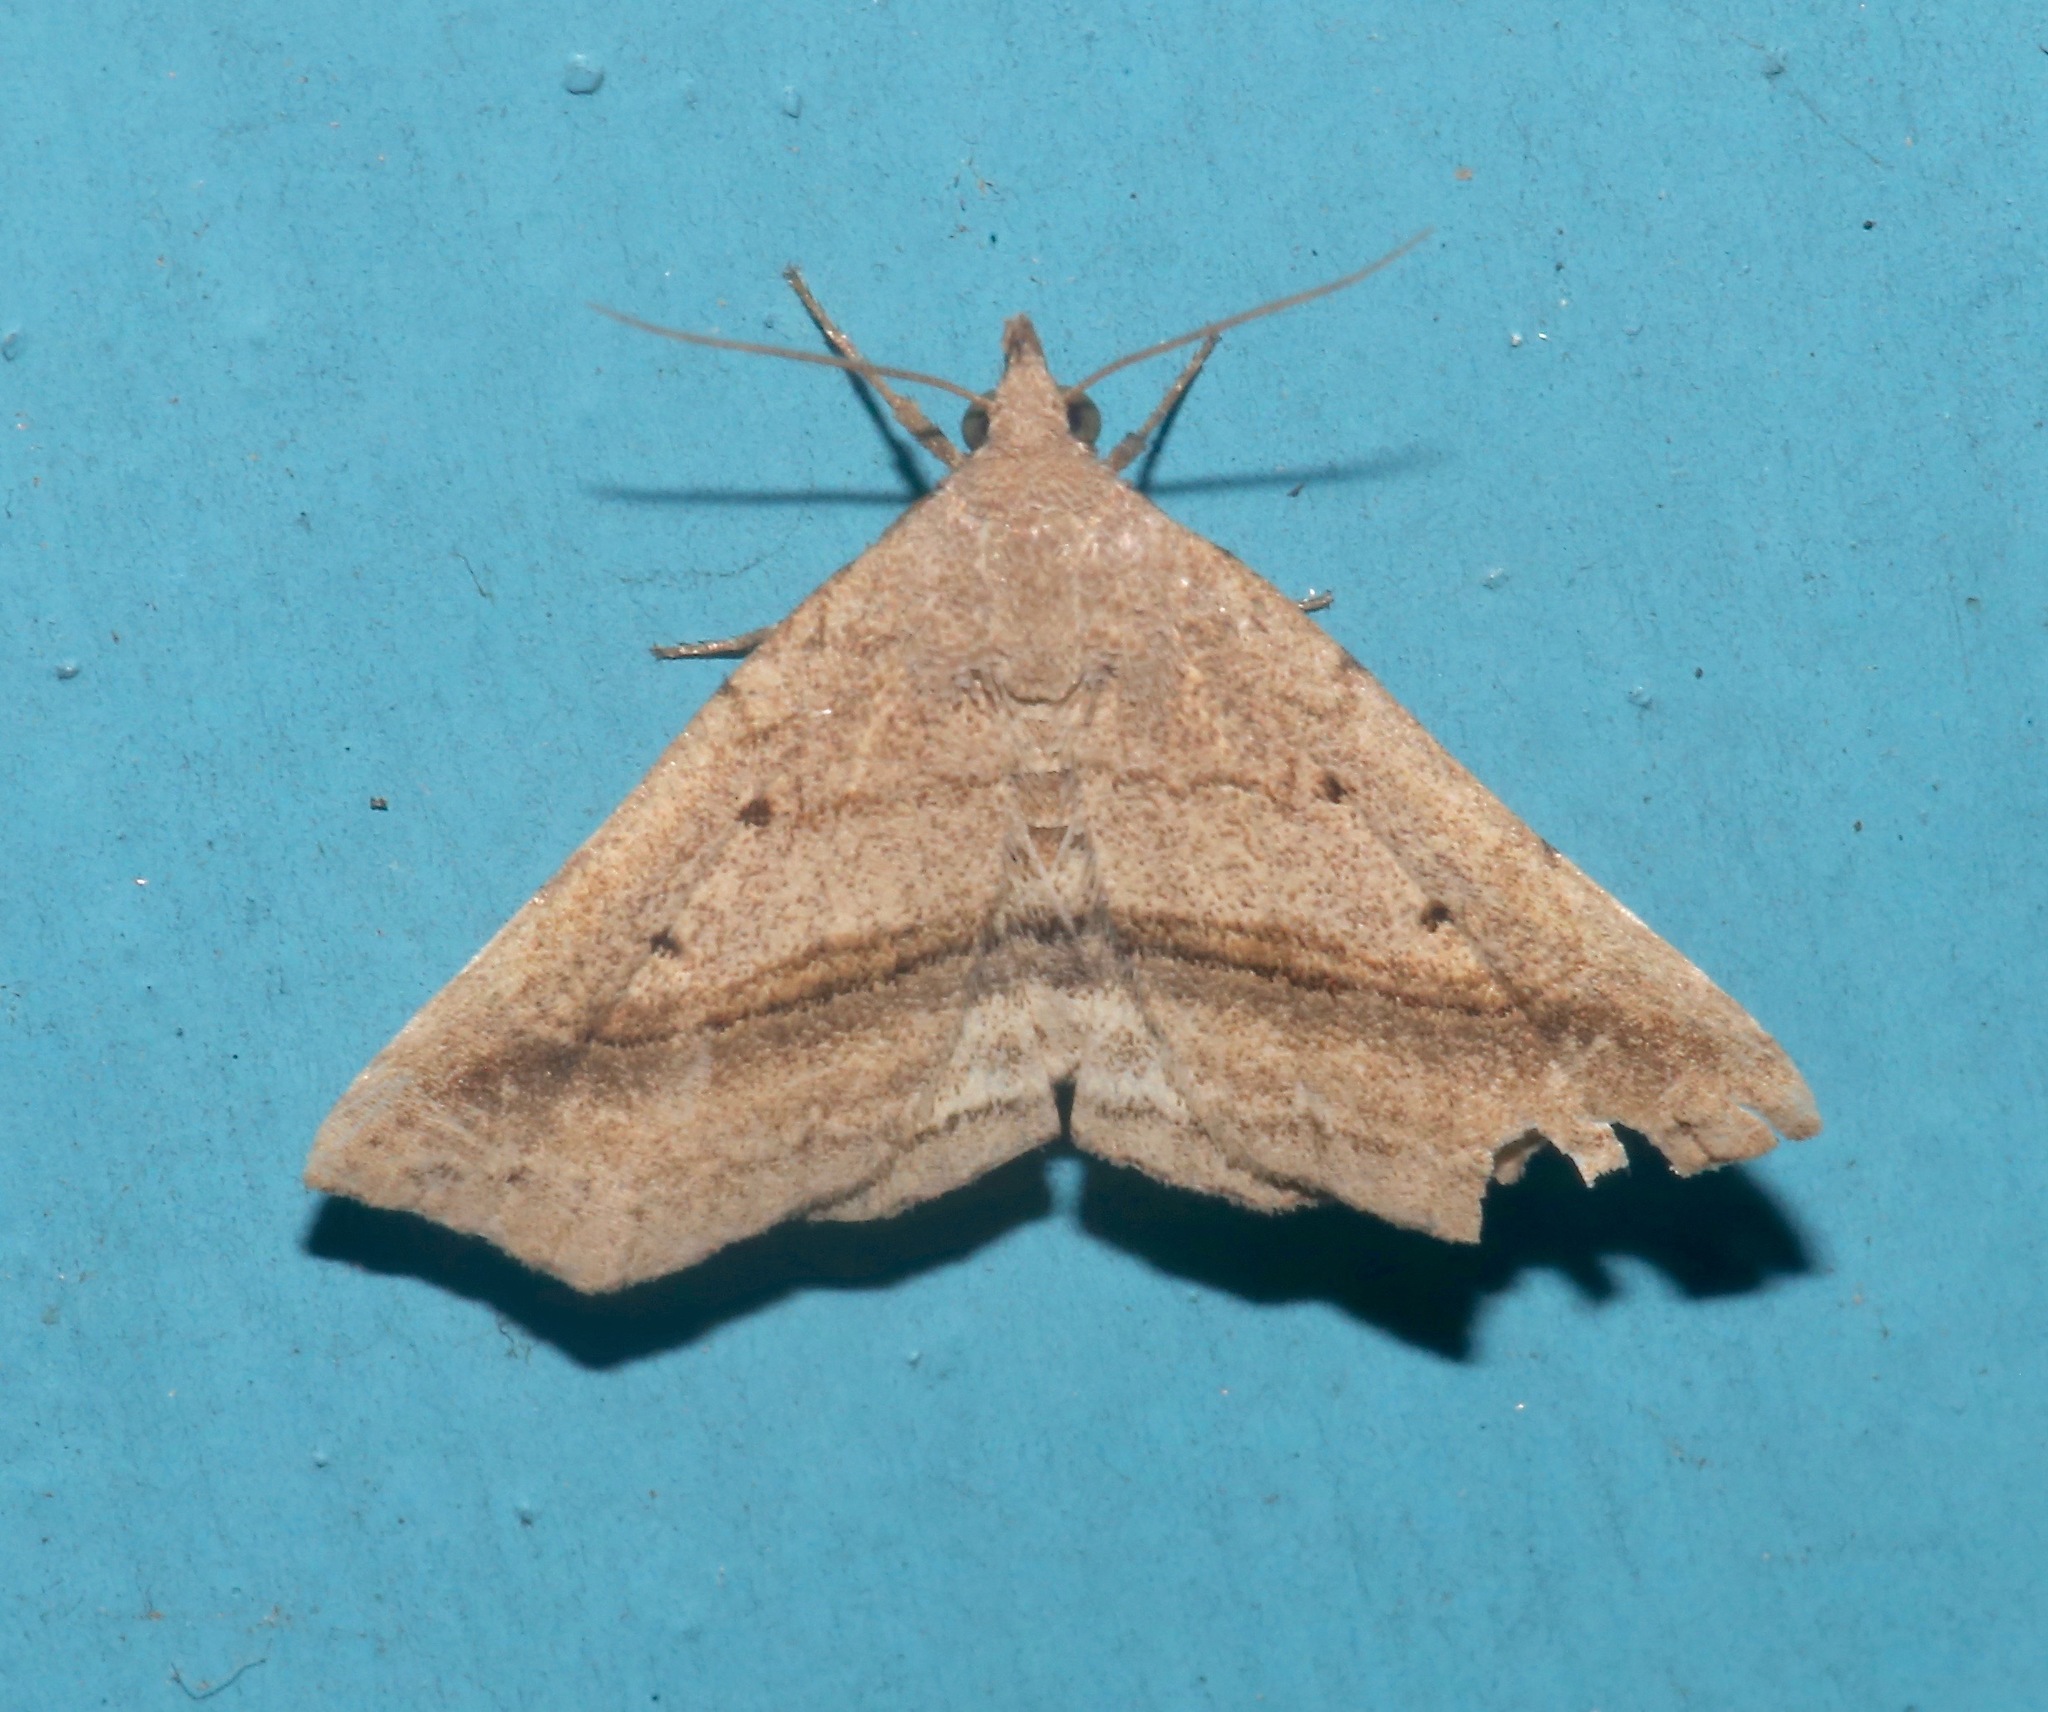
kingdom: Animalia
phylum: Arthropoda
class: Insecta
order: Lepidoptera
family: Erebidae
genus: Spargaloma
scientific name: Spargaloma perditalis
